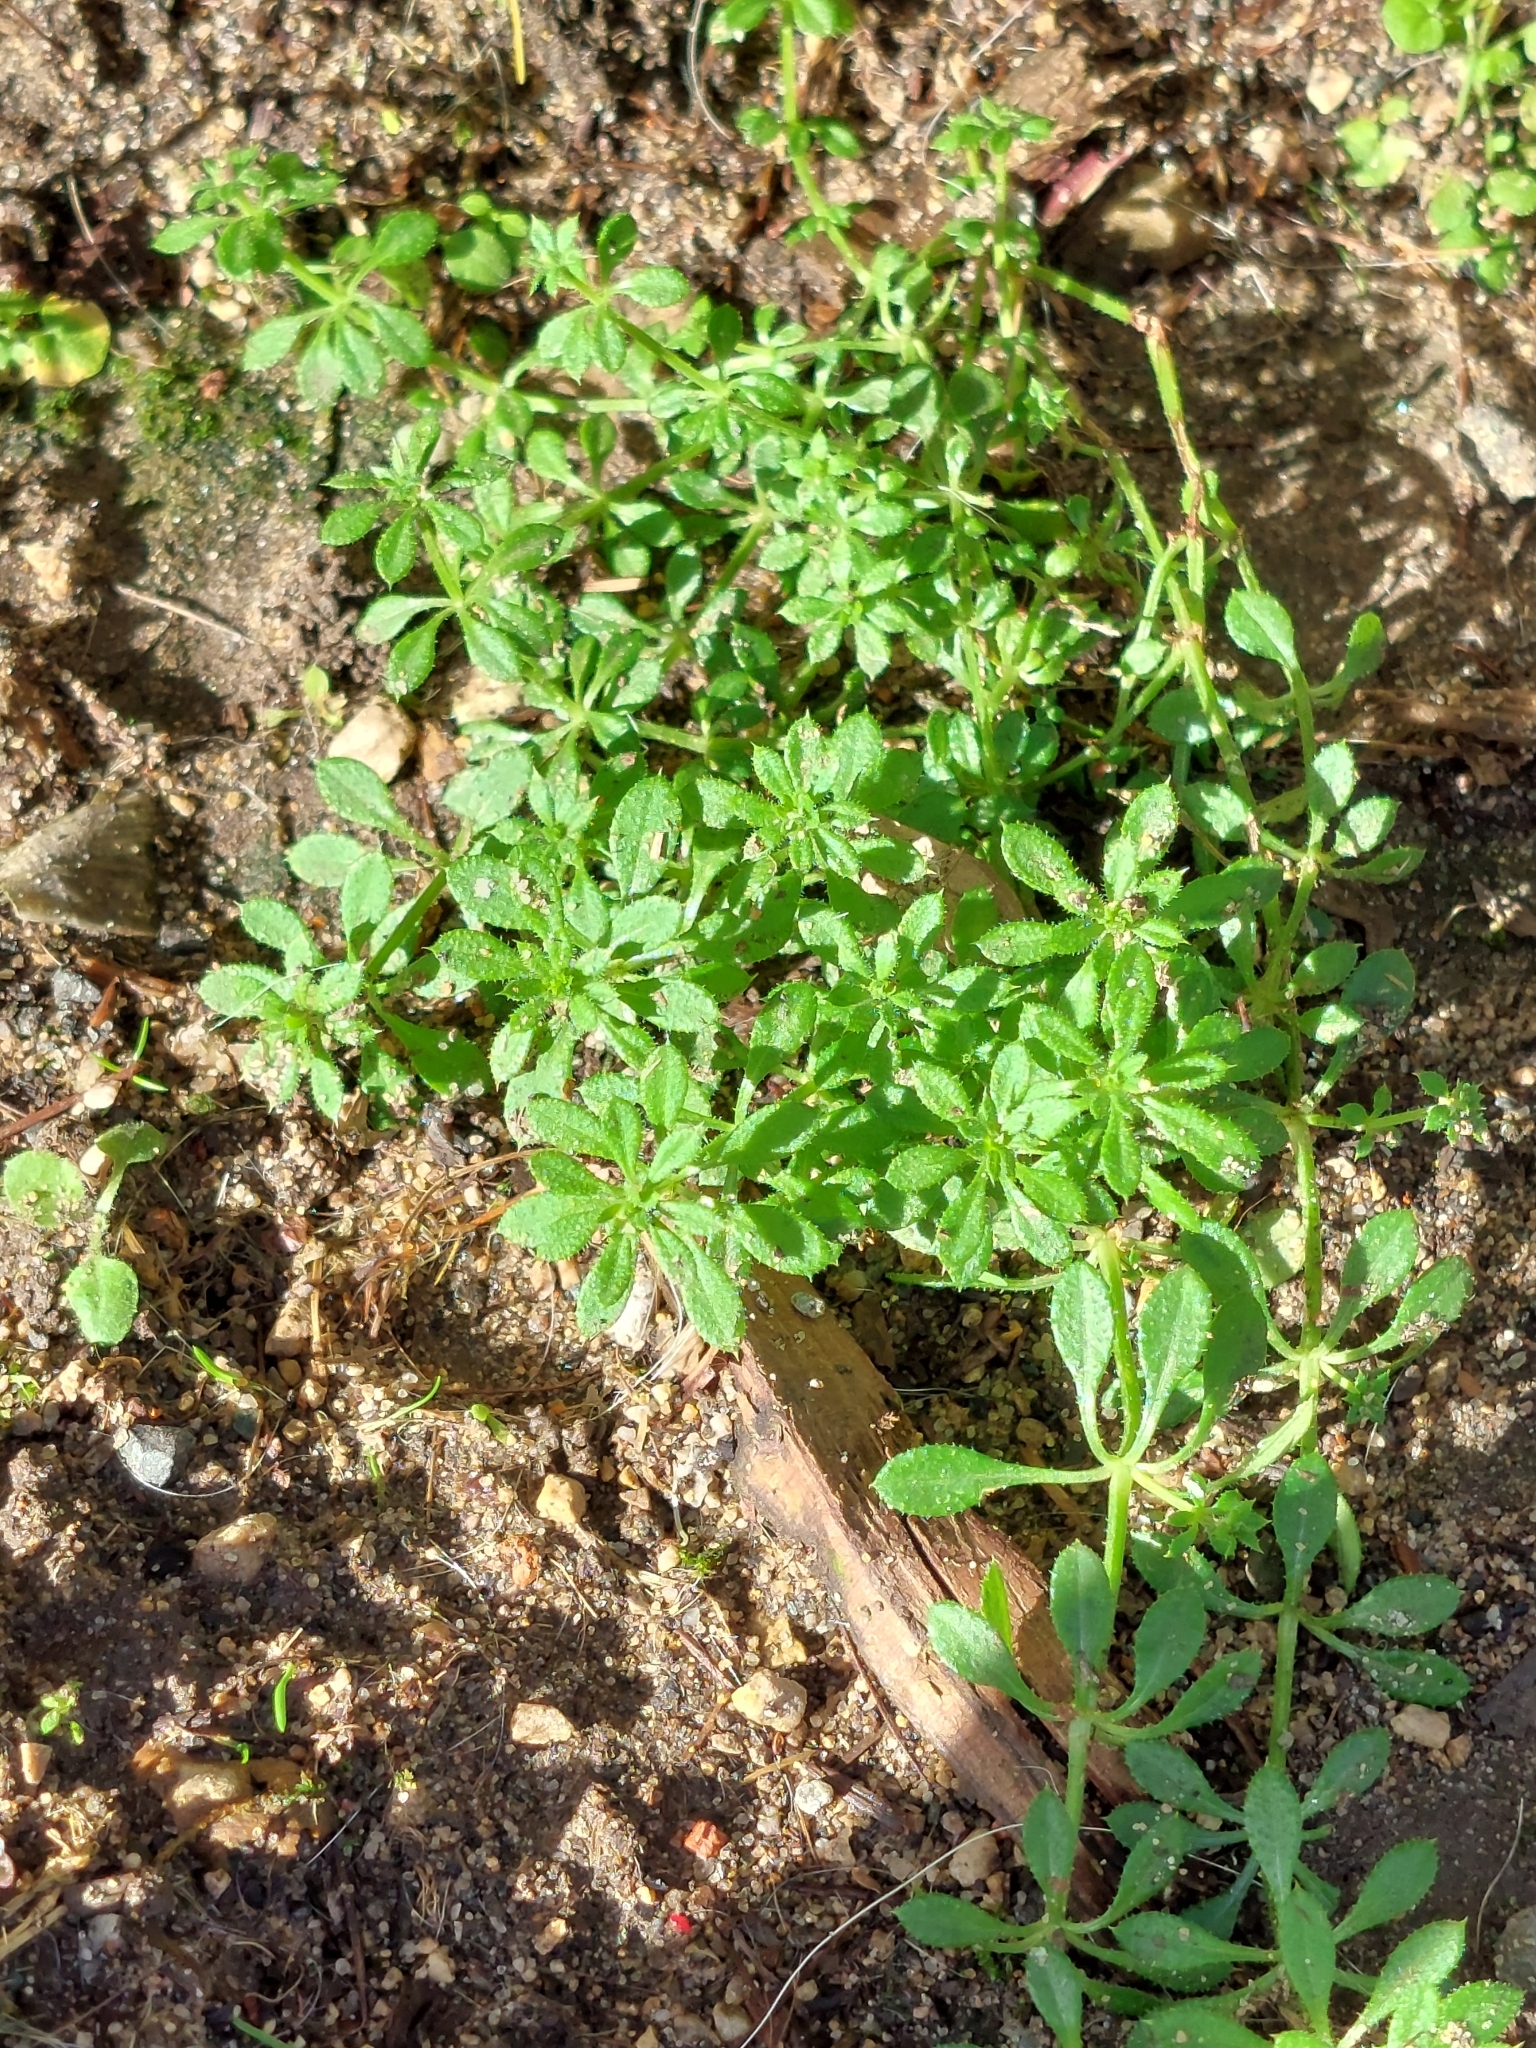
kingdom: Plantae
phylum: Tracheophyta
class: Magnoliopsida
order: Gentianales
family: Rubiaceae
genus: Galium
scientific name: Galium aparine
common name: Cleavers
